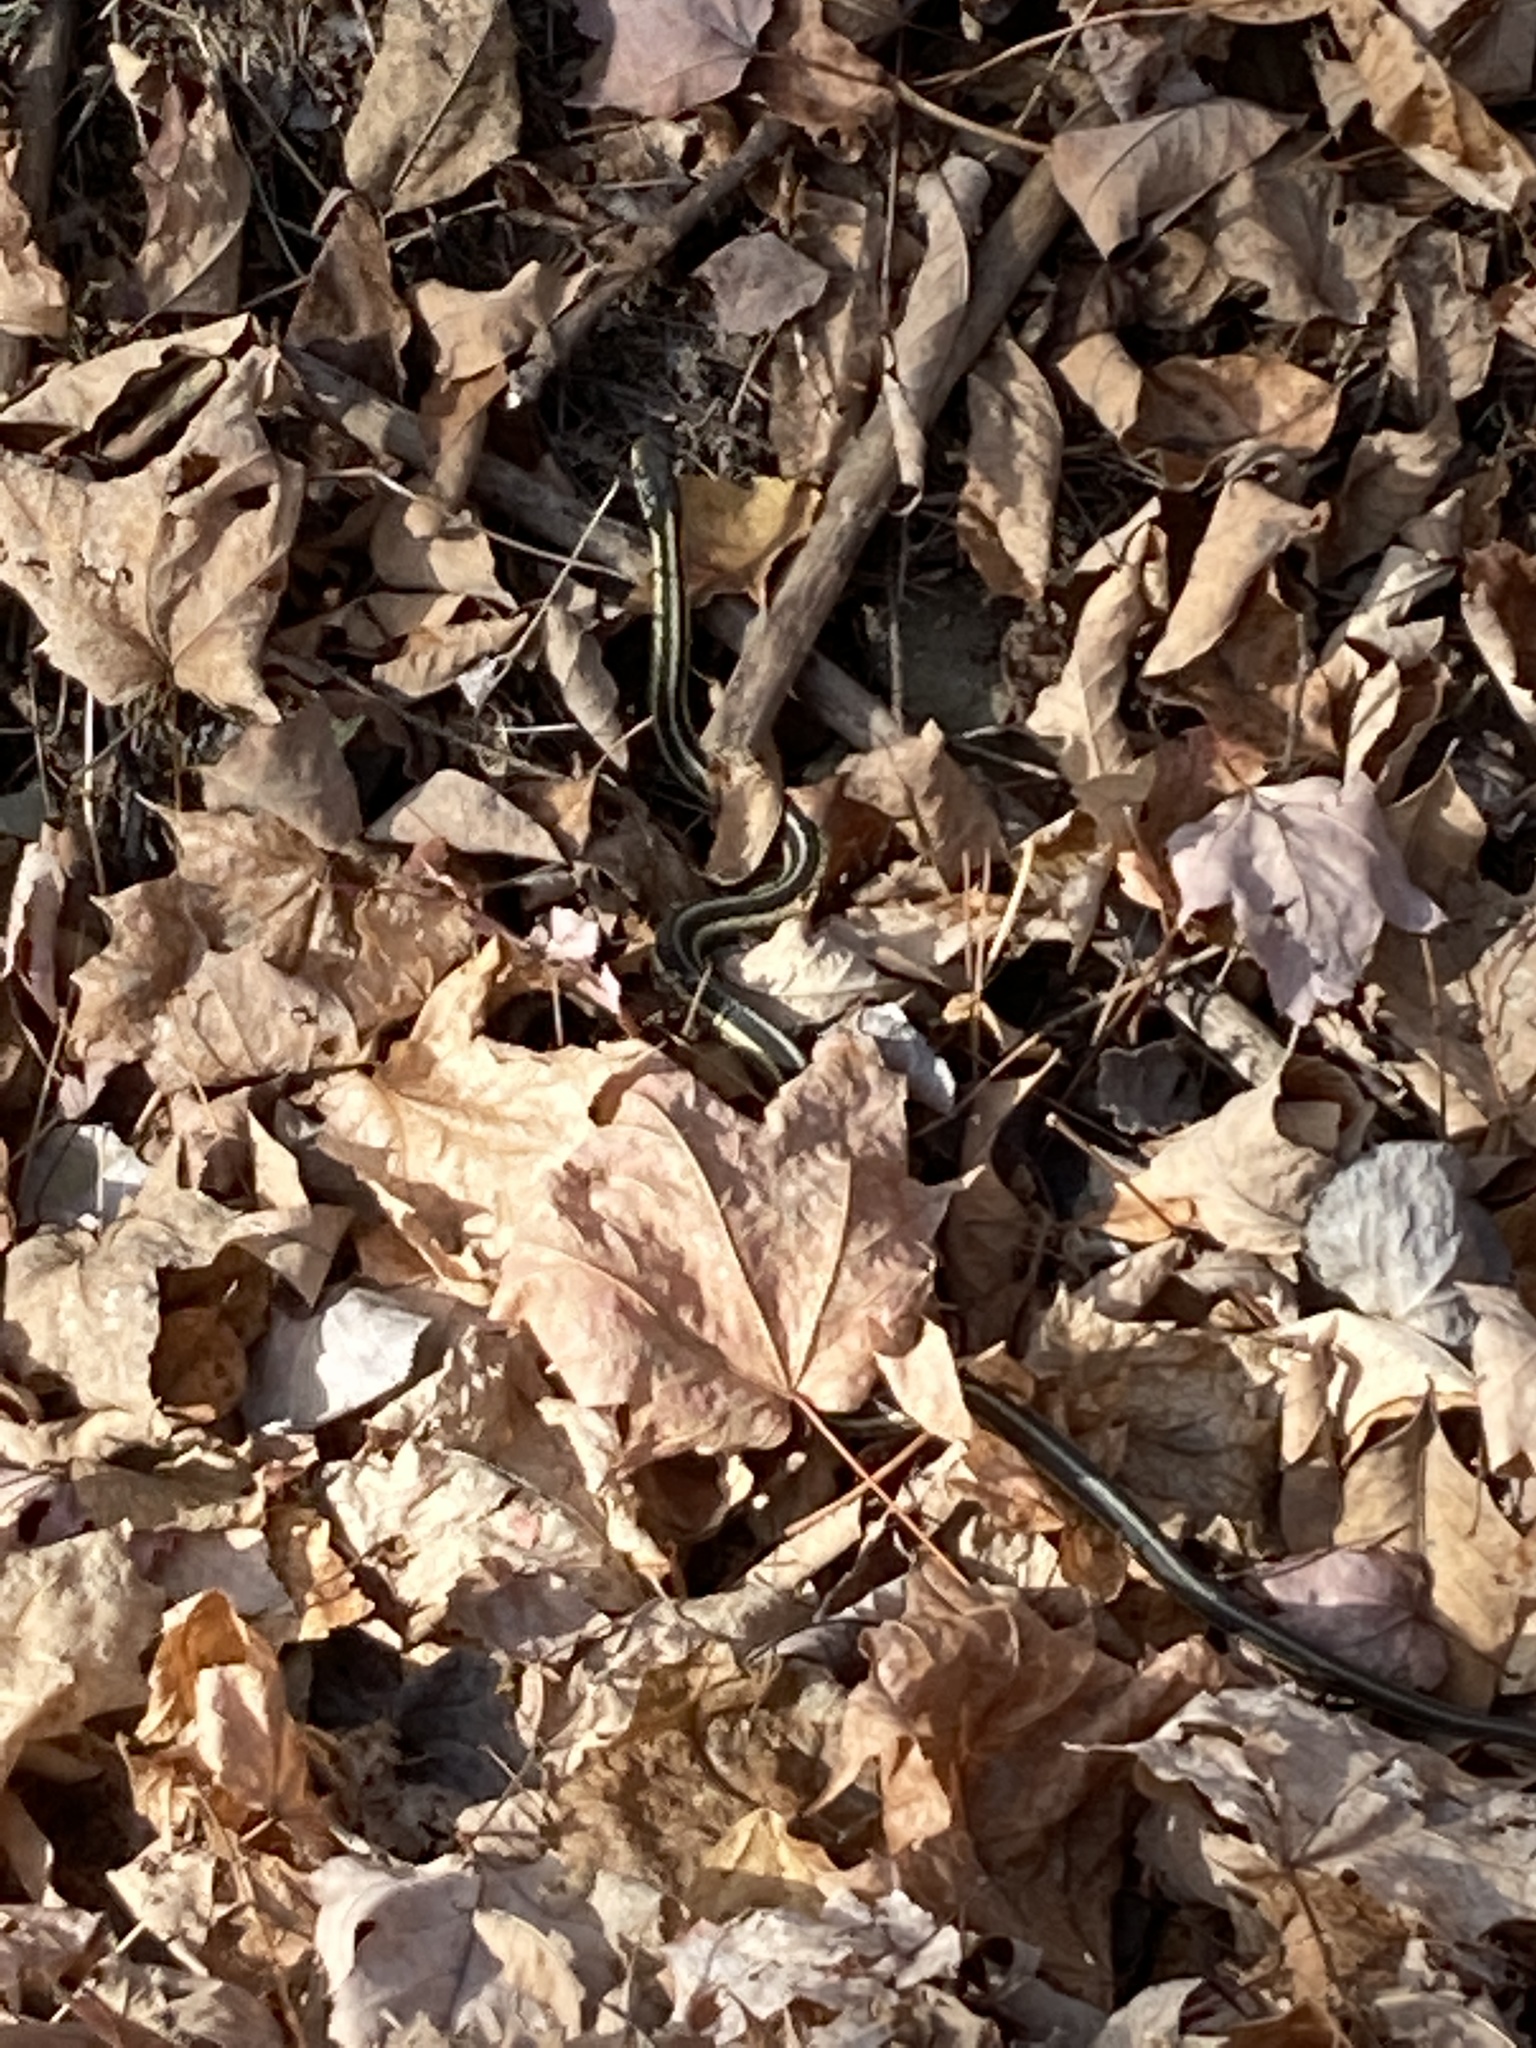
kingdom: Animalia
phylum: Chordata
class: Squamata
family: Colubridae
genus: Thamnophis
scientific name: Thamnophis sirtalis
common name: Common garter snake
